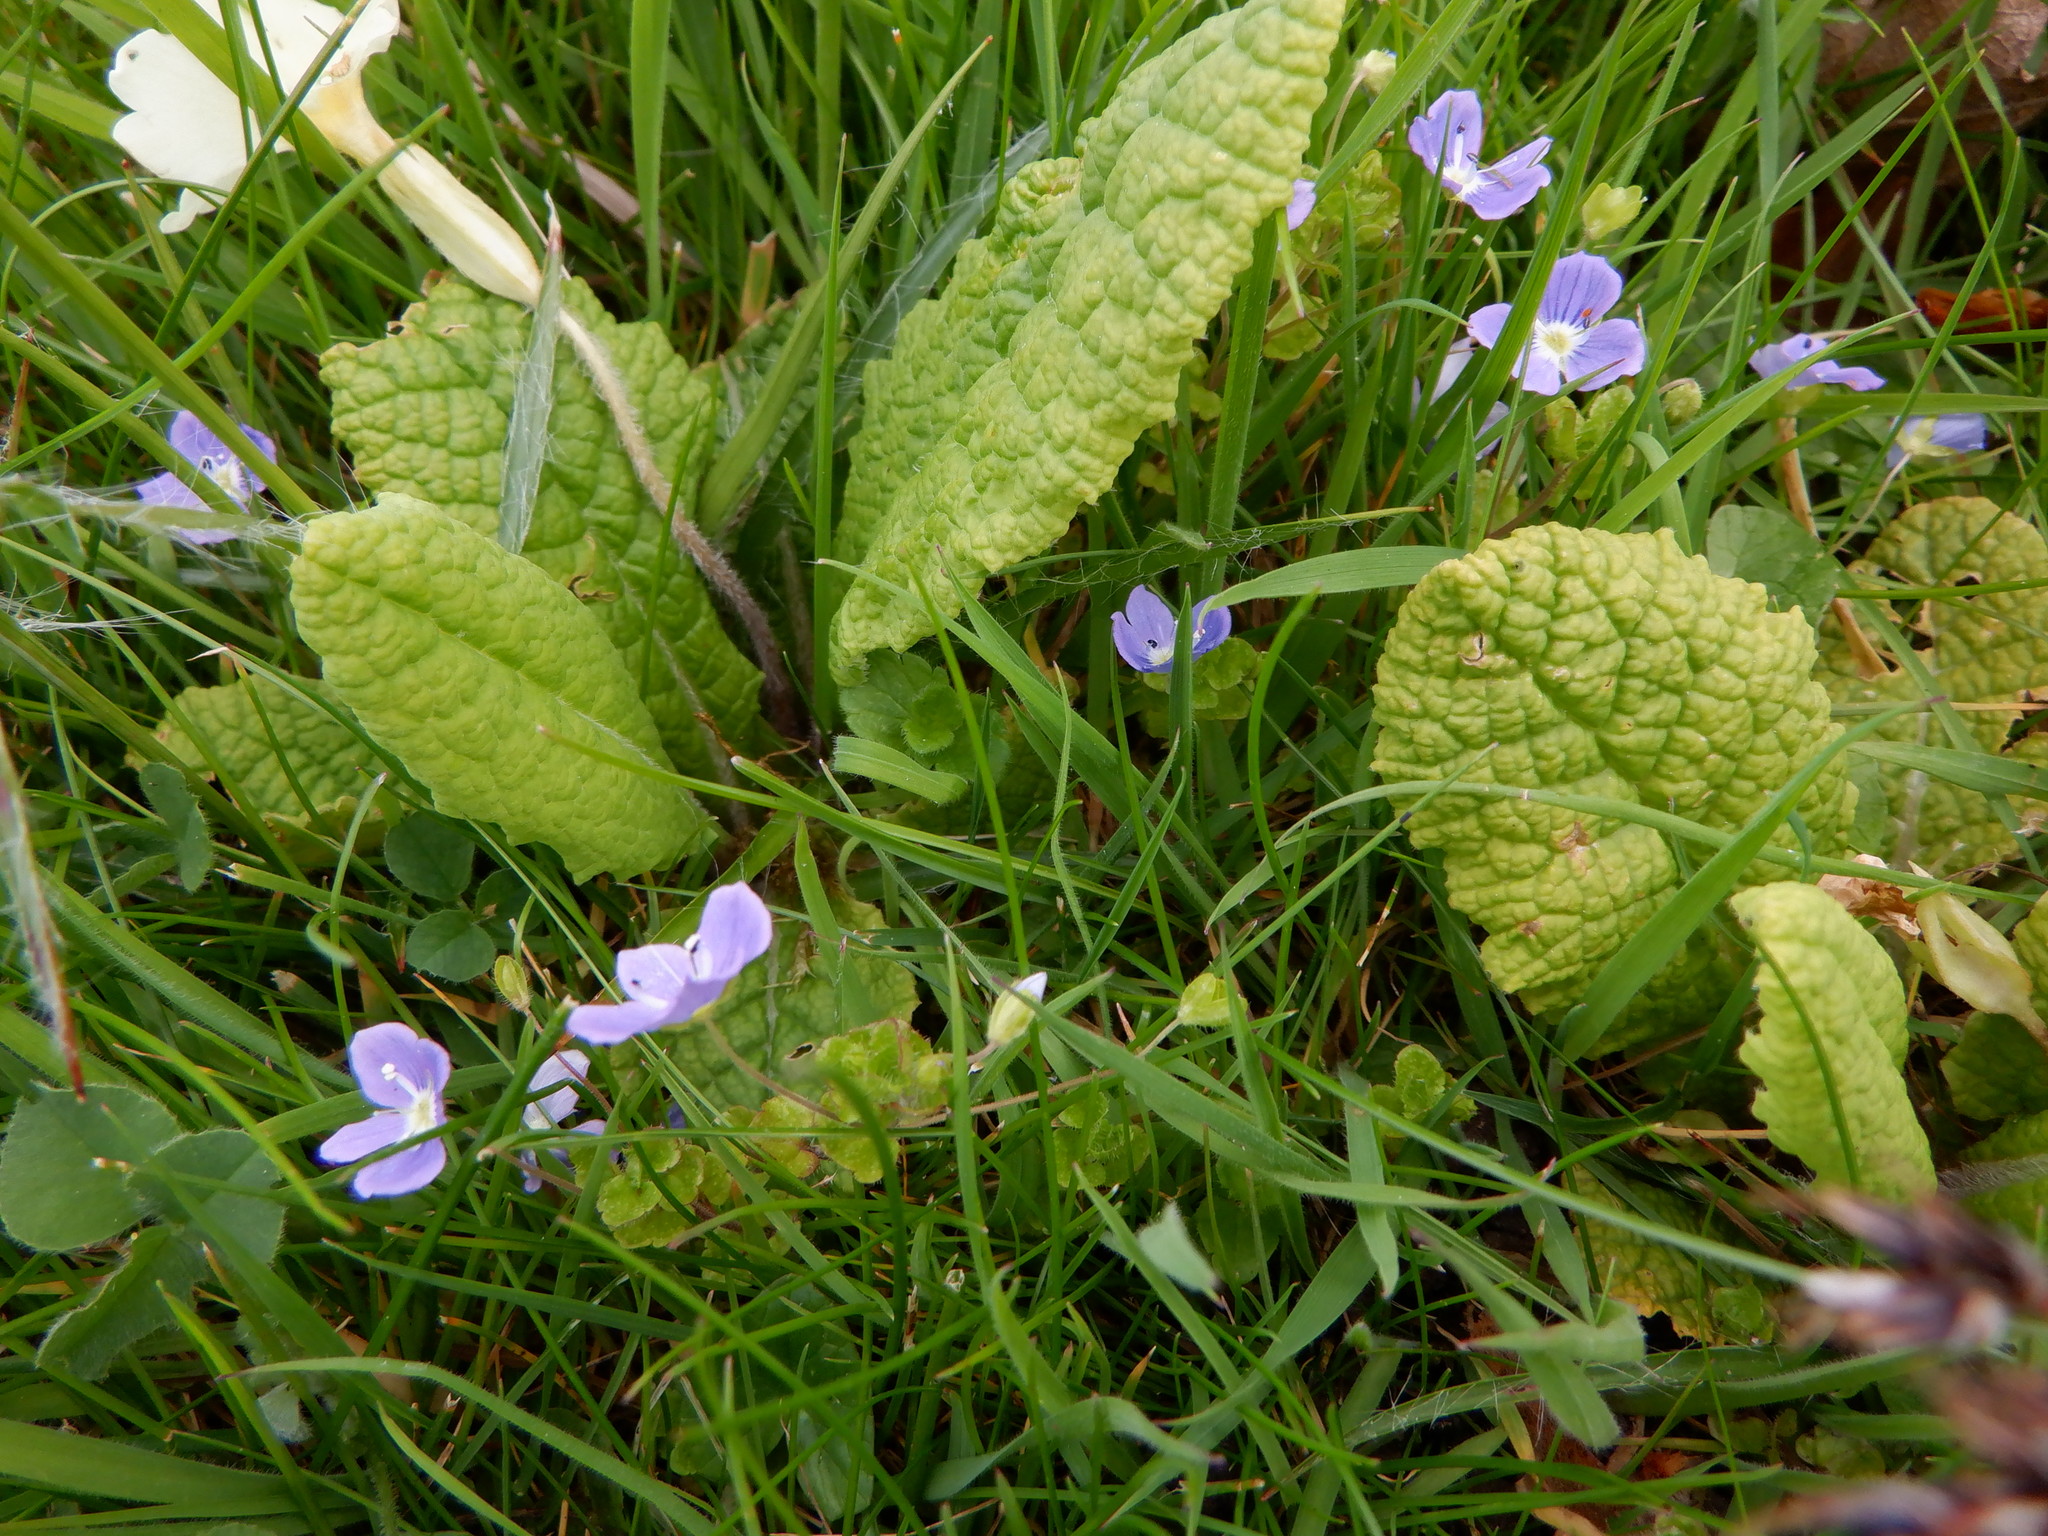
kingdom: Plantae
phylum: Tracheophyta
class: Magnoliopsida
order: Lamiales
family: Plantaginaceae
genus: Veronica
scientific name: Veronica filiformis
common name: Slender speedwell
